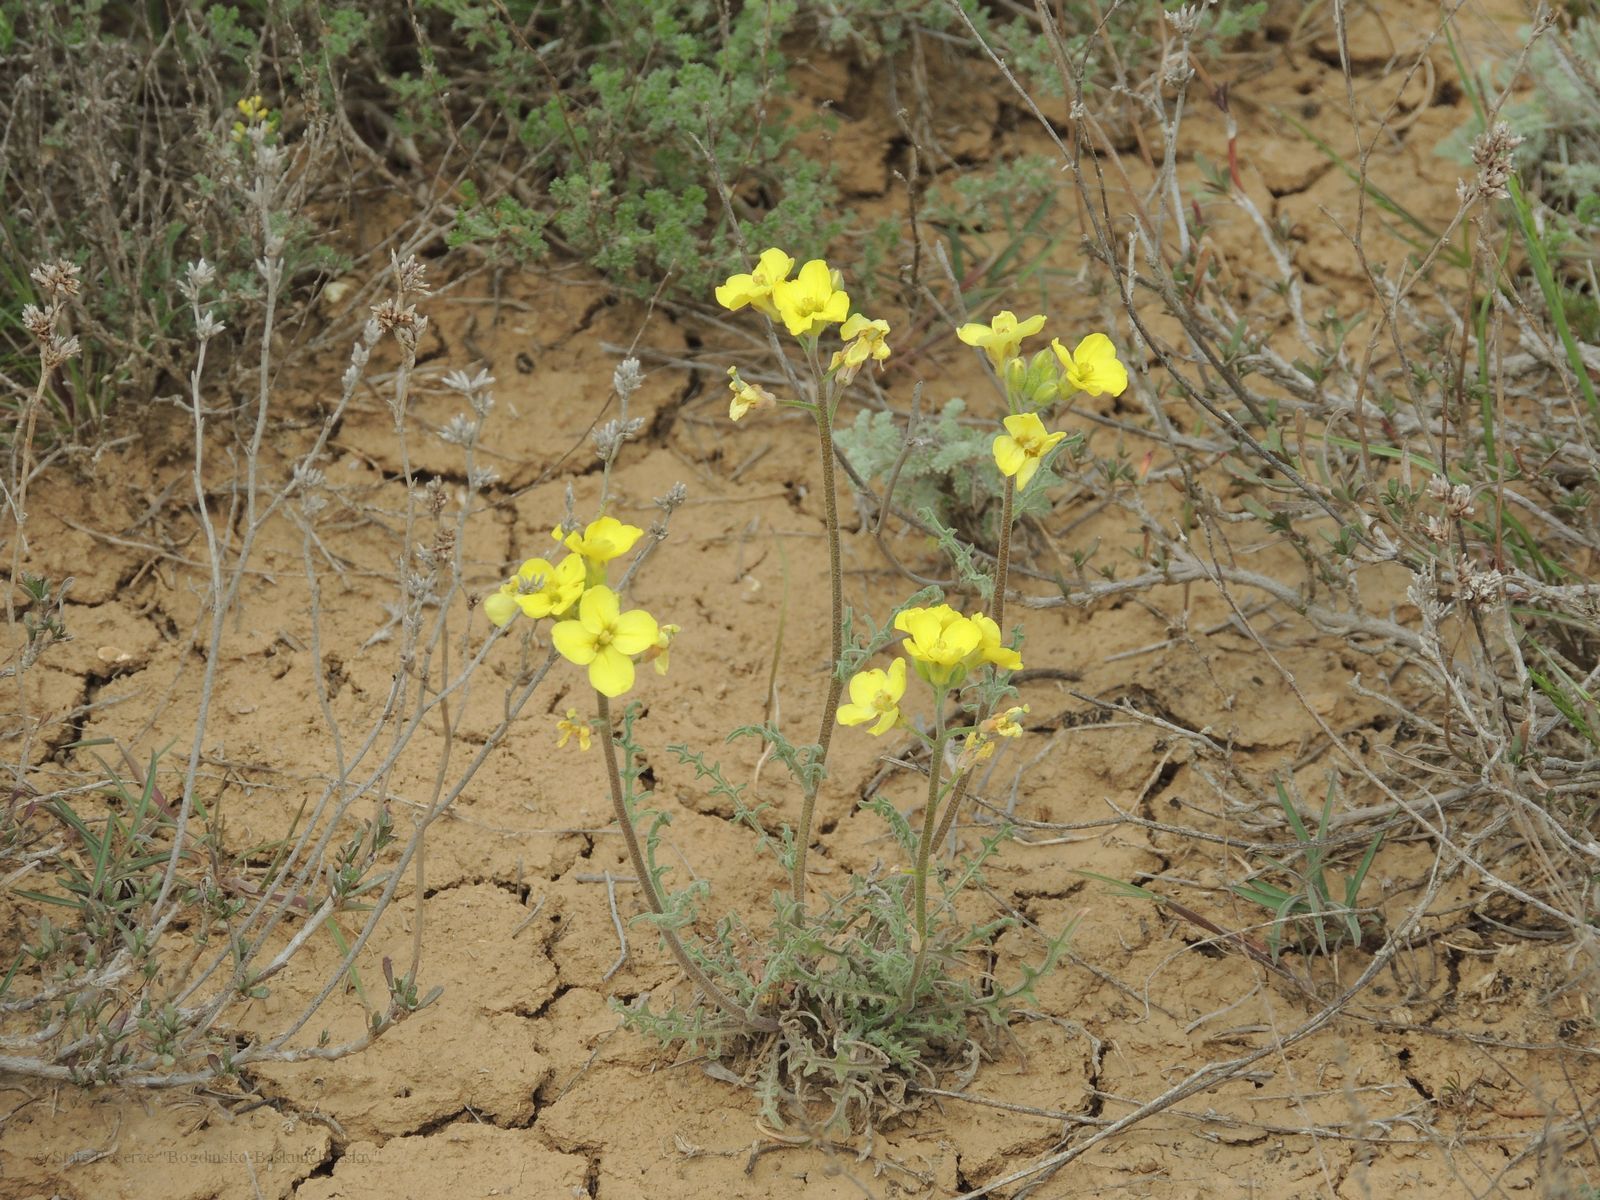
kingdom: Plantae
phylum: Tracheophyta
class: Magnoliopsida
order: Brassicales
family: Brassicaceae
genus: Sterigmostemum
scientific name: Sterigmostemum caspicum
